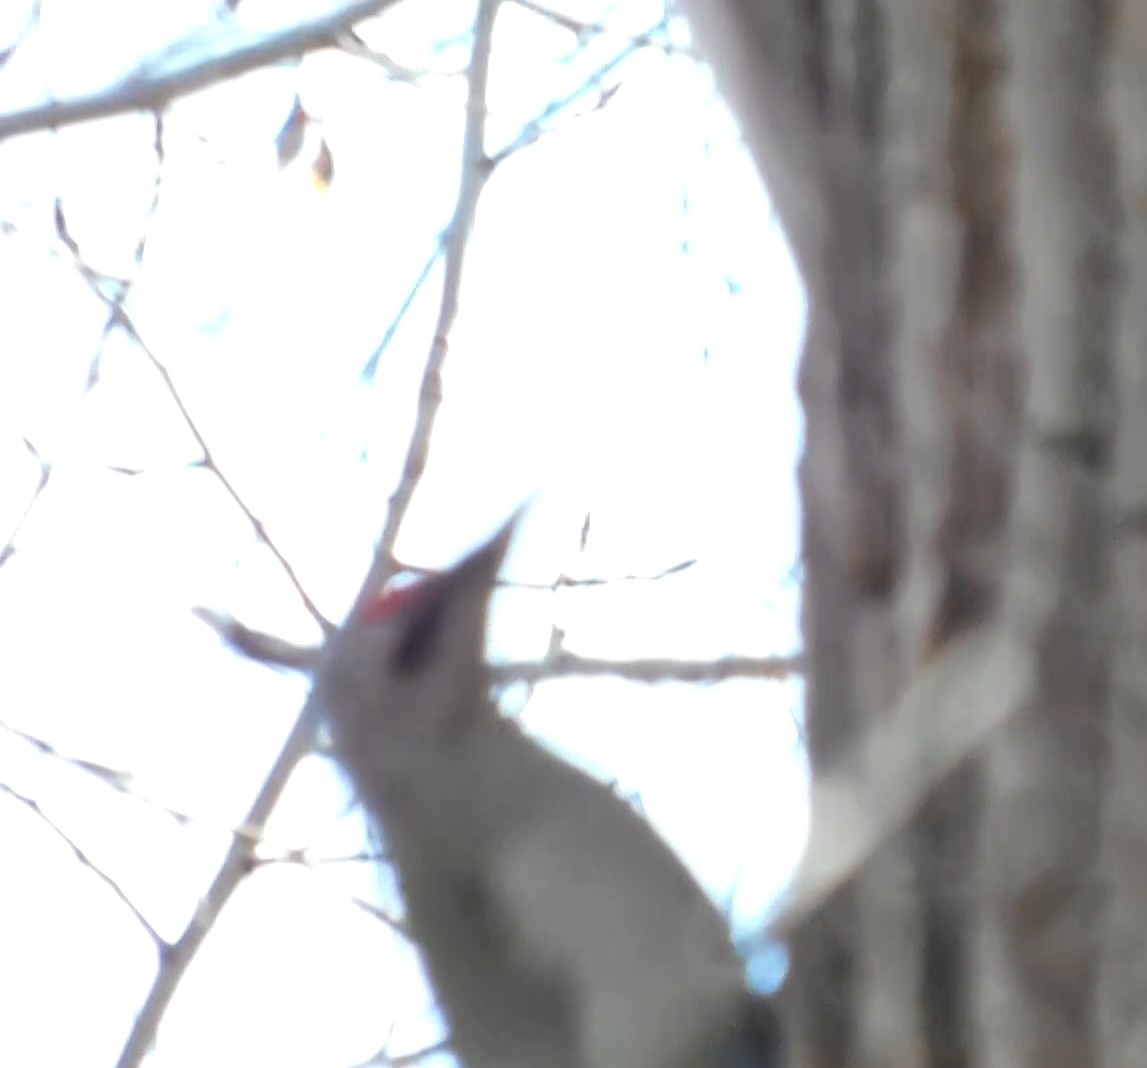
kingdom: Animalia
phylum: Chordata
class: Aves
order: Piciformes
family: Picidae
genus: Picus
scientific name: Picus canus
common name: Grey-headed woodpecker
